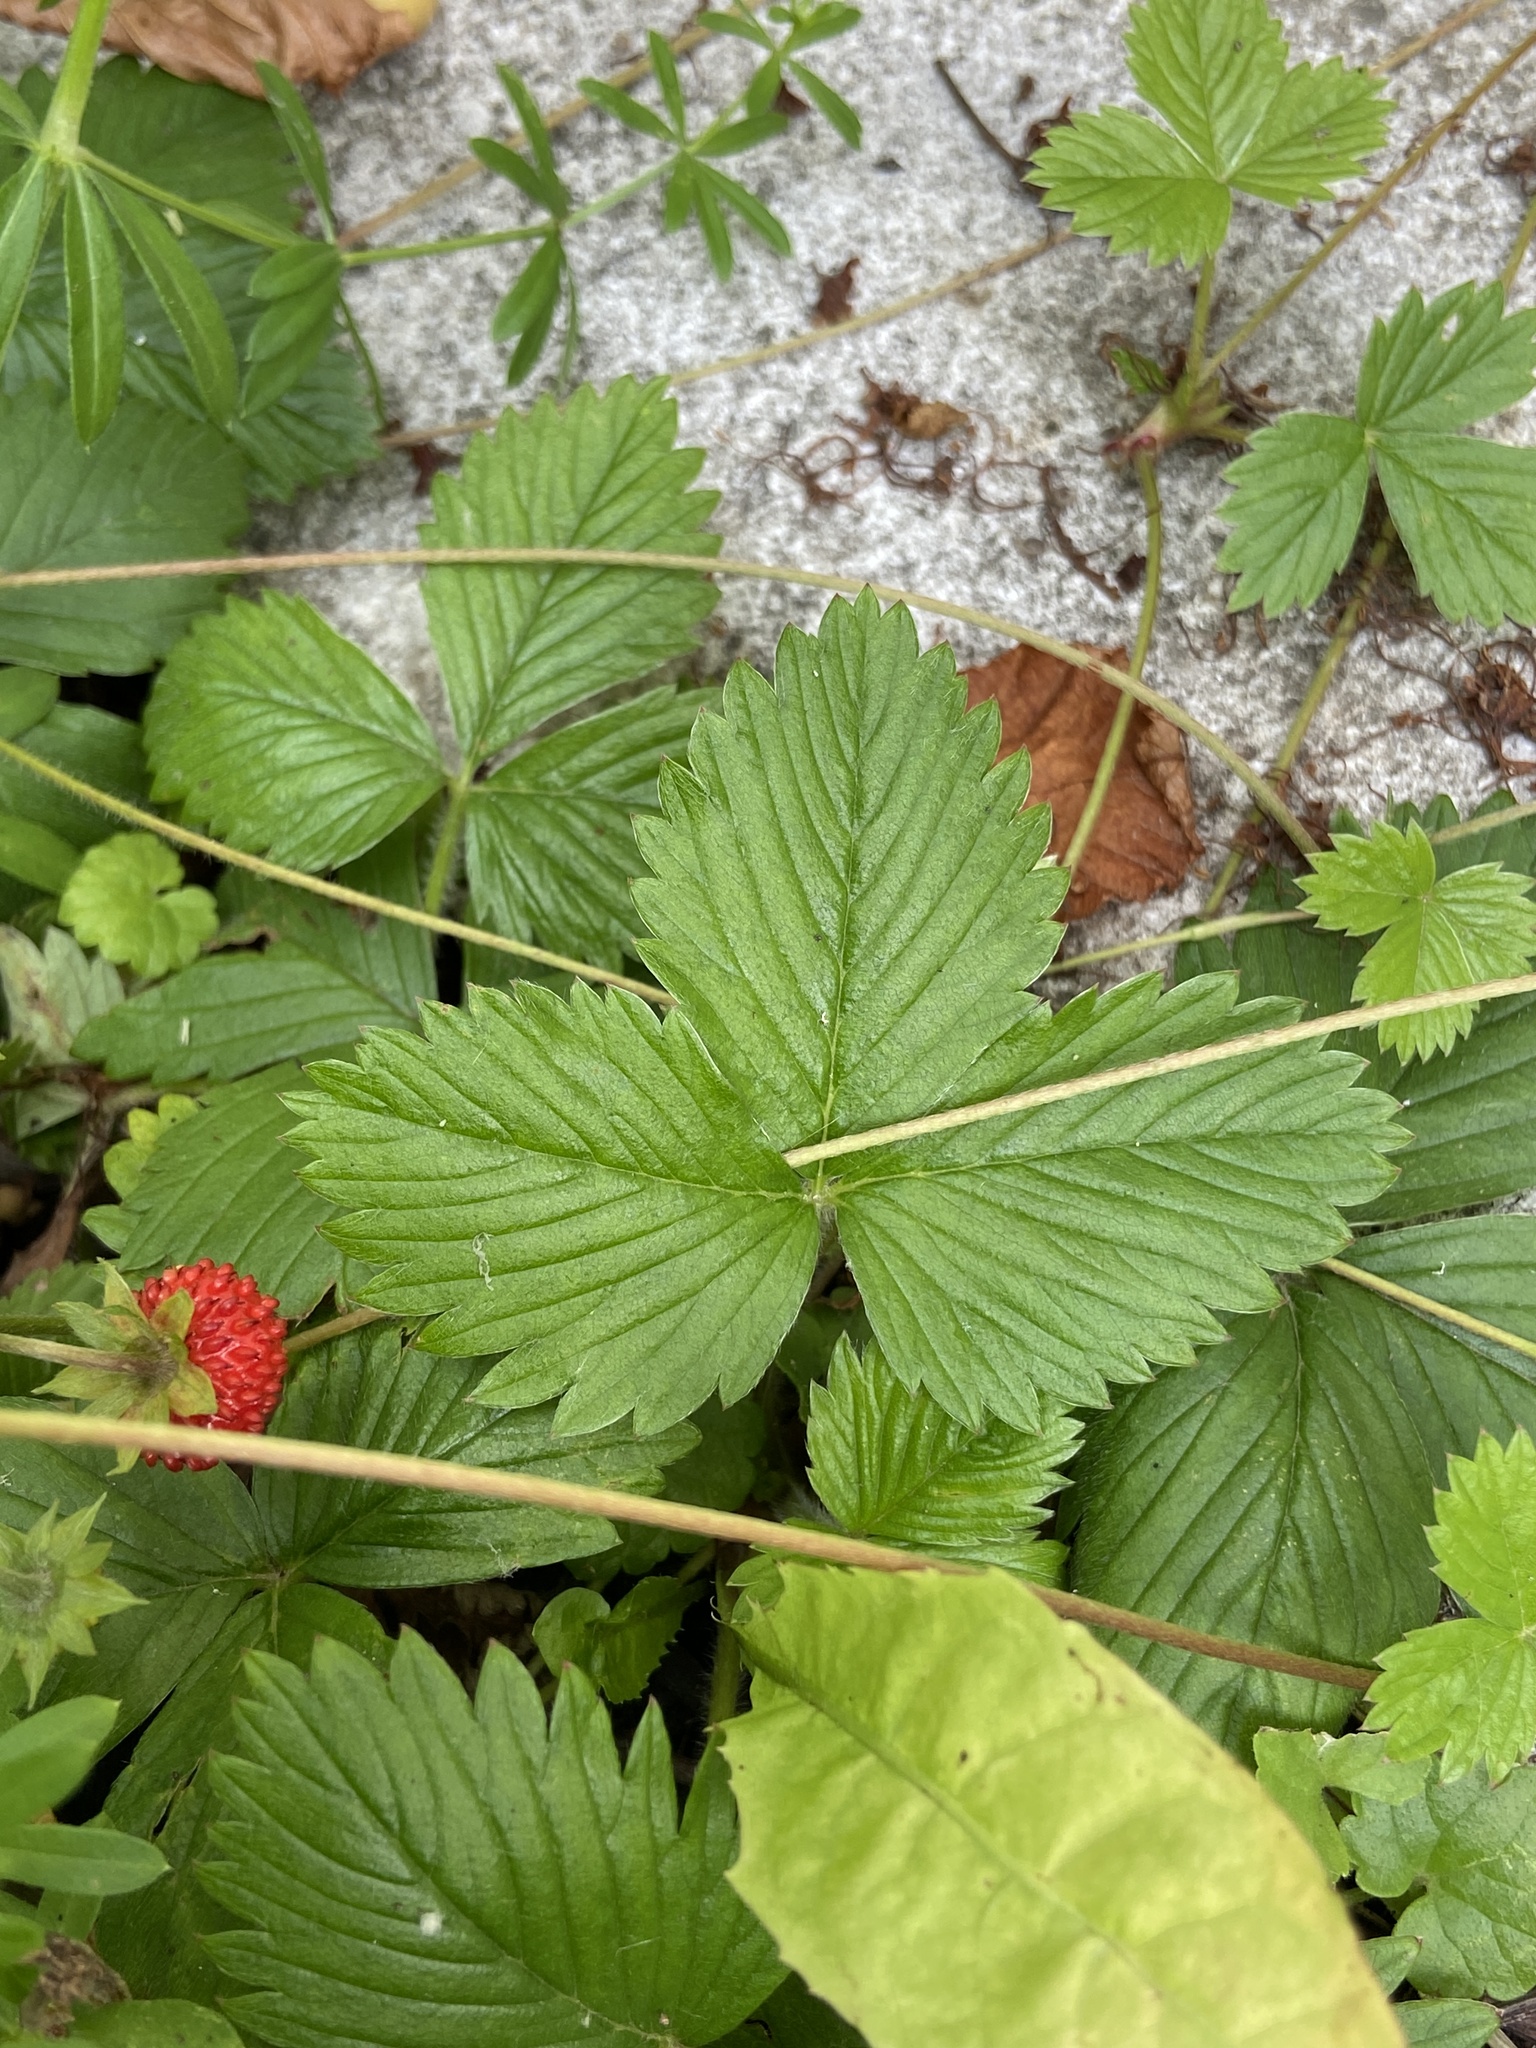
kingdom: Plantae
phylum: Tracheophyta
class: Magnoliopsida
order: Rosales
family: Rosaceae
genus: Fragaria
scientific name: Fragaria vesca
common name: Wild strawberry
